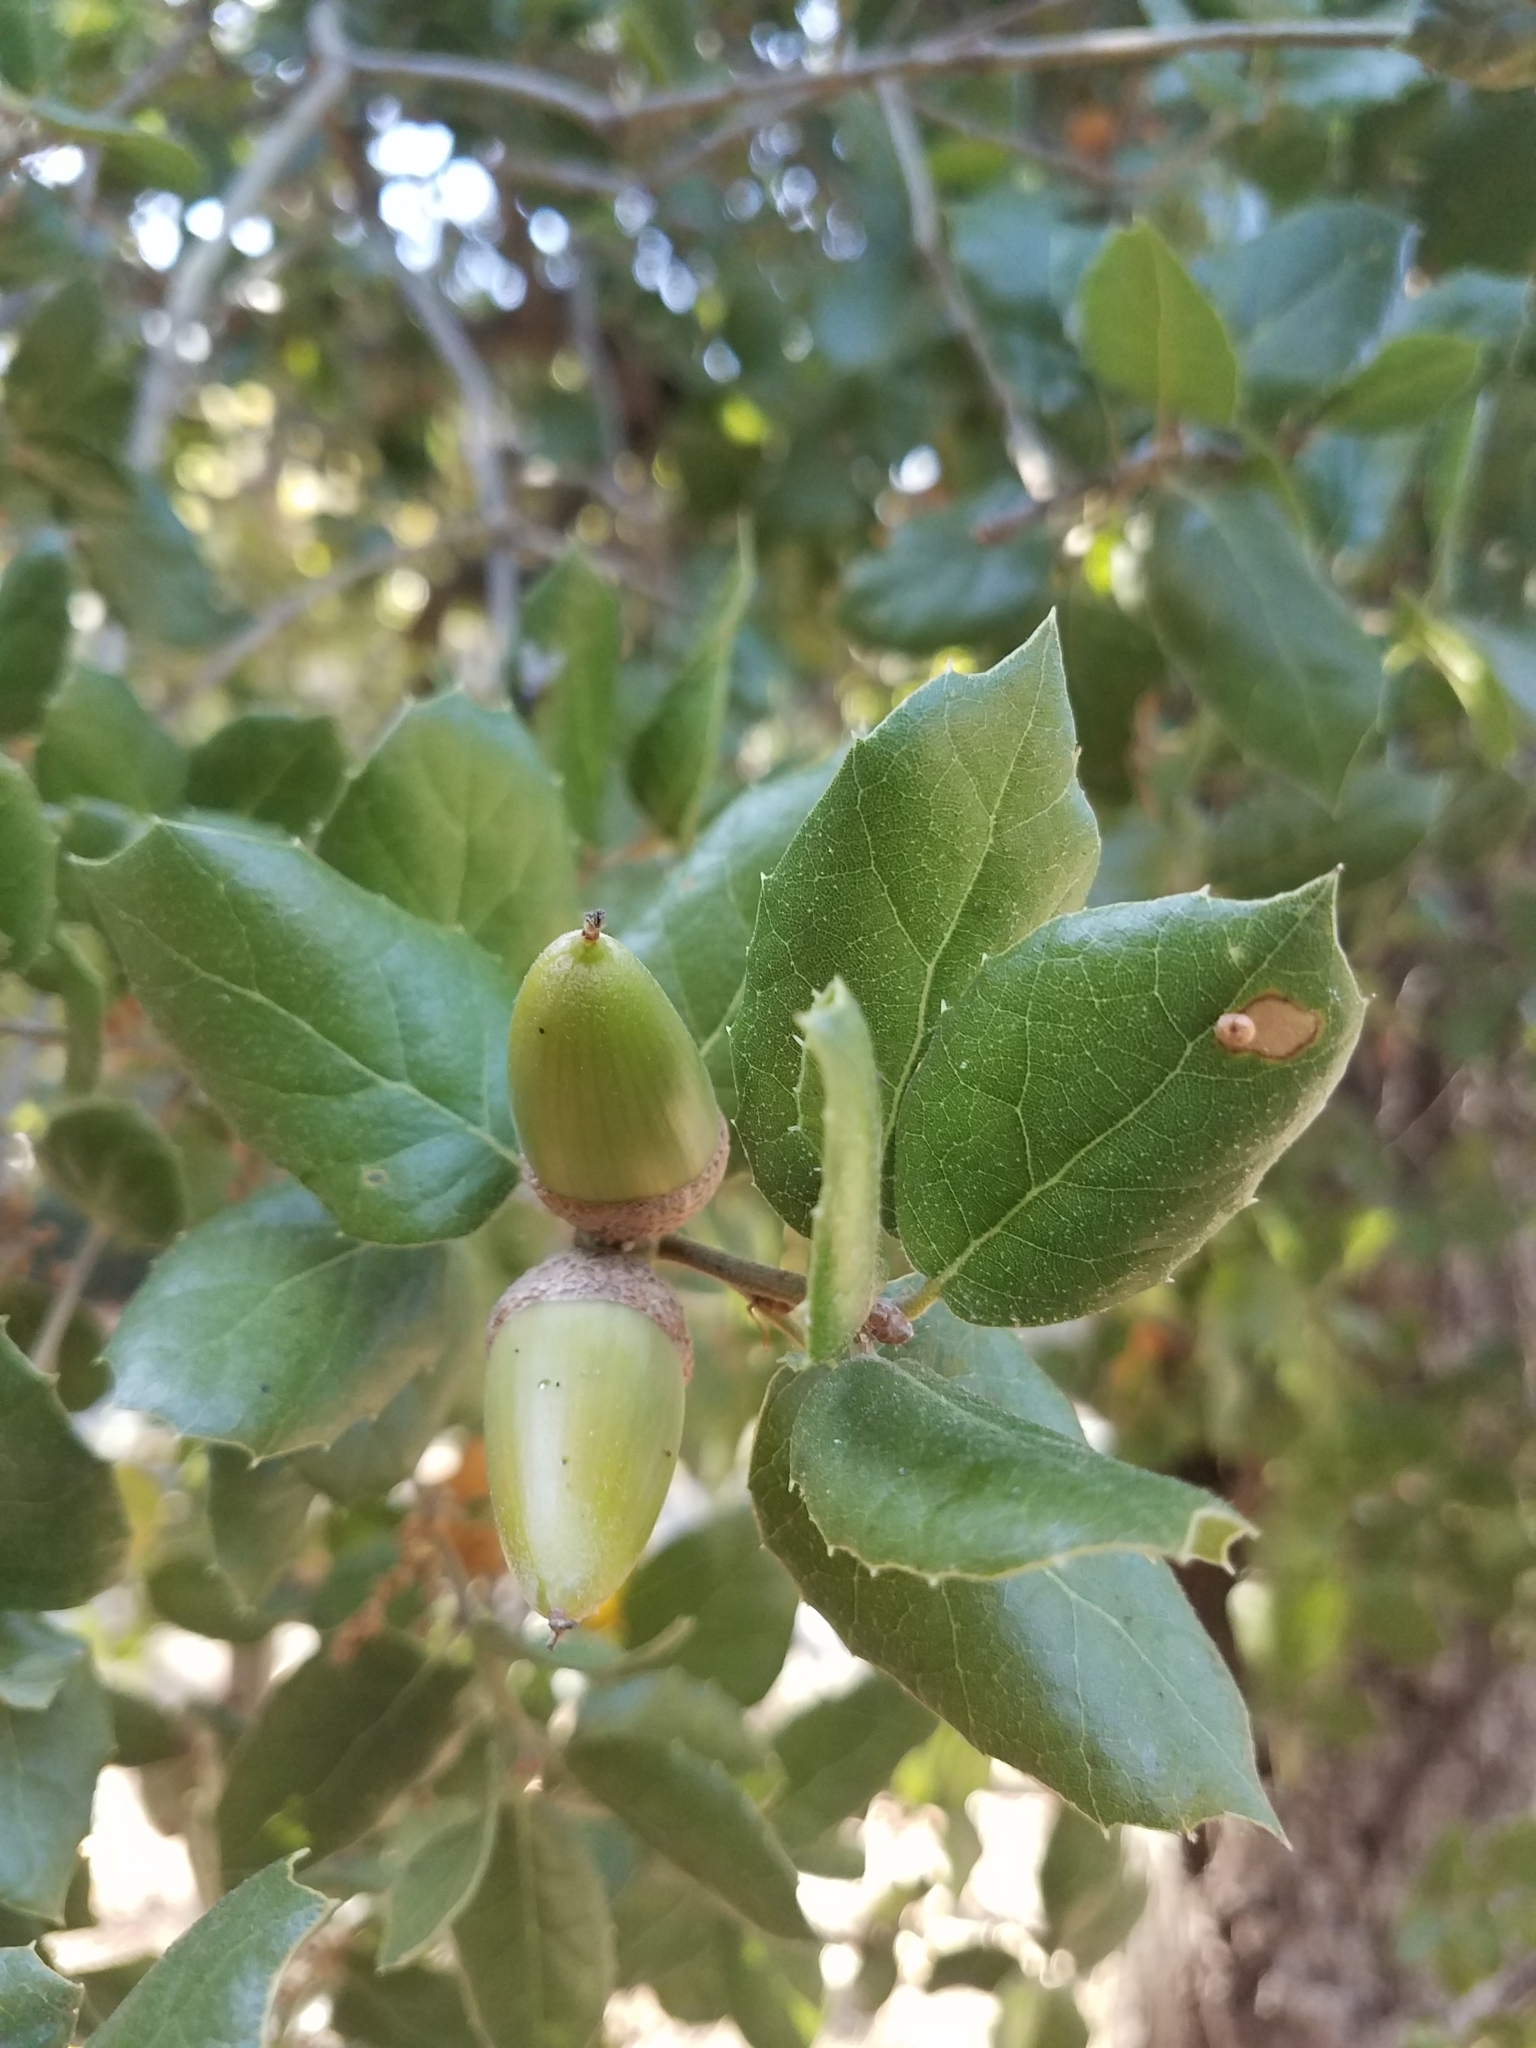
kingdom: Plantae
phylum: Tracheophyta
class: Magnoliopsida
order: Fagales
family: Fagaceae
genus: Quercus
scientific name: Quercus agrifolia
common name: California live oak
